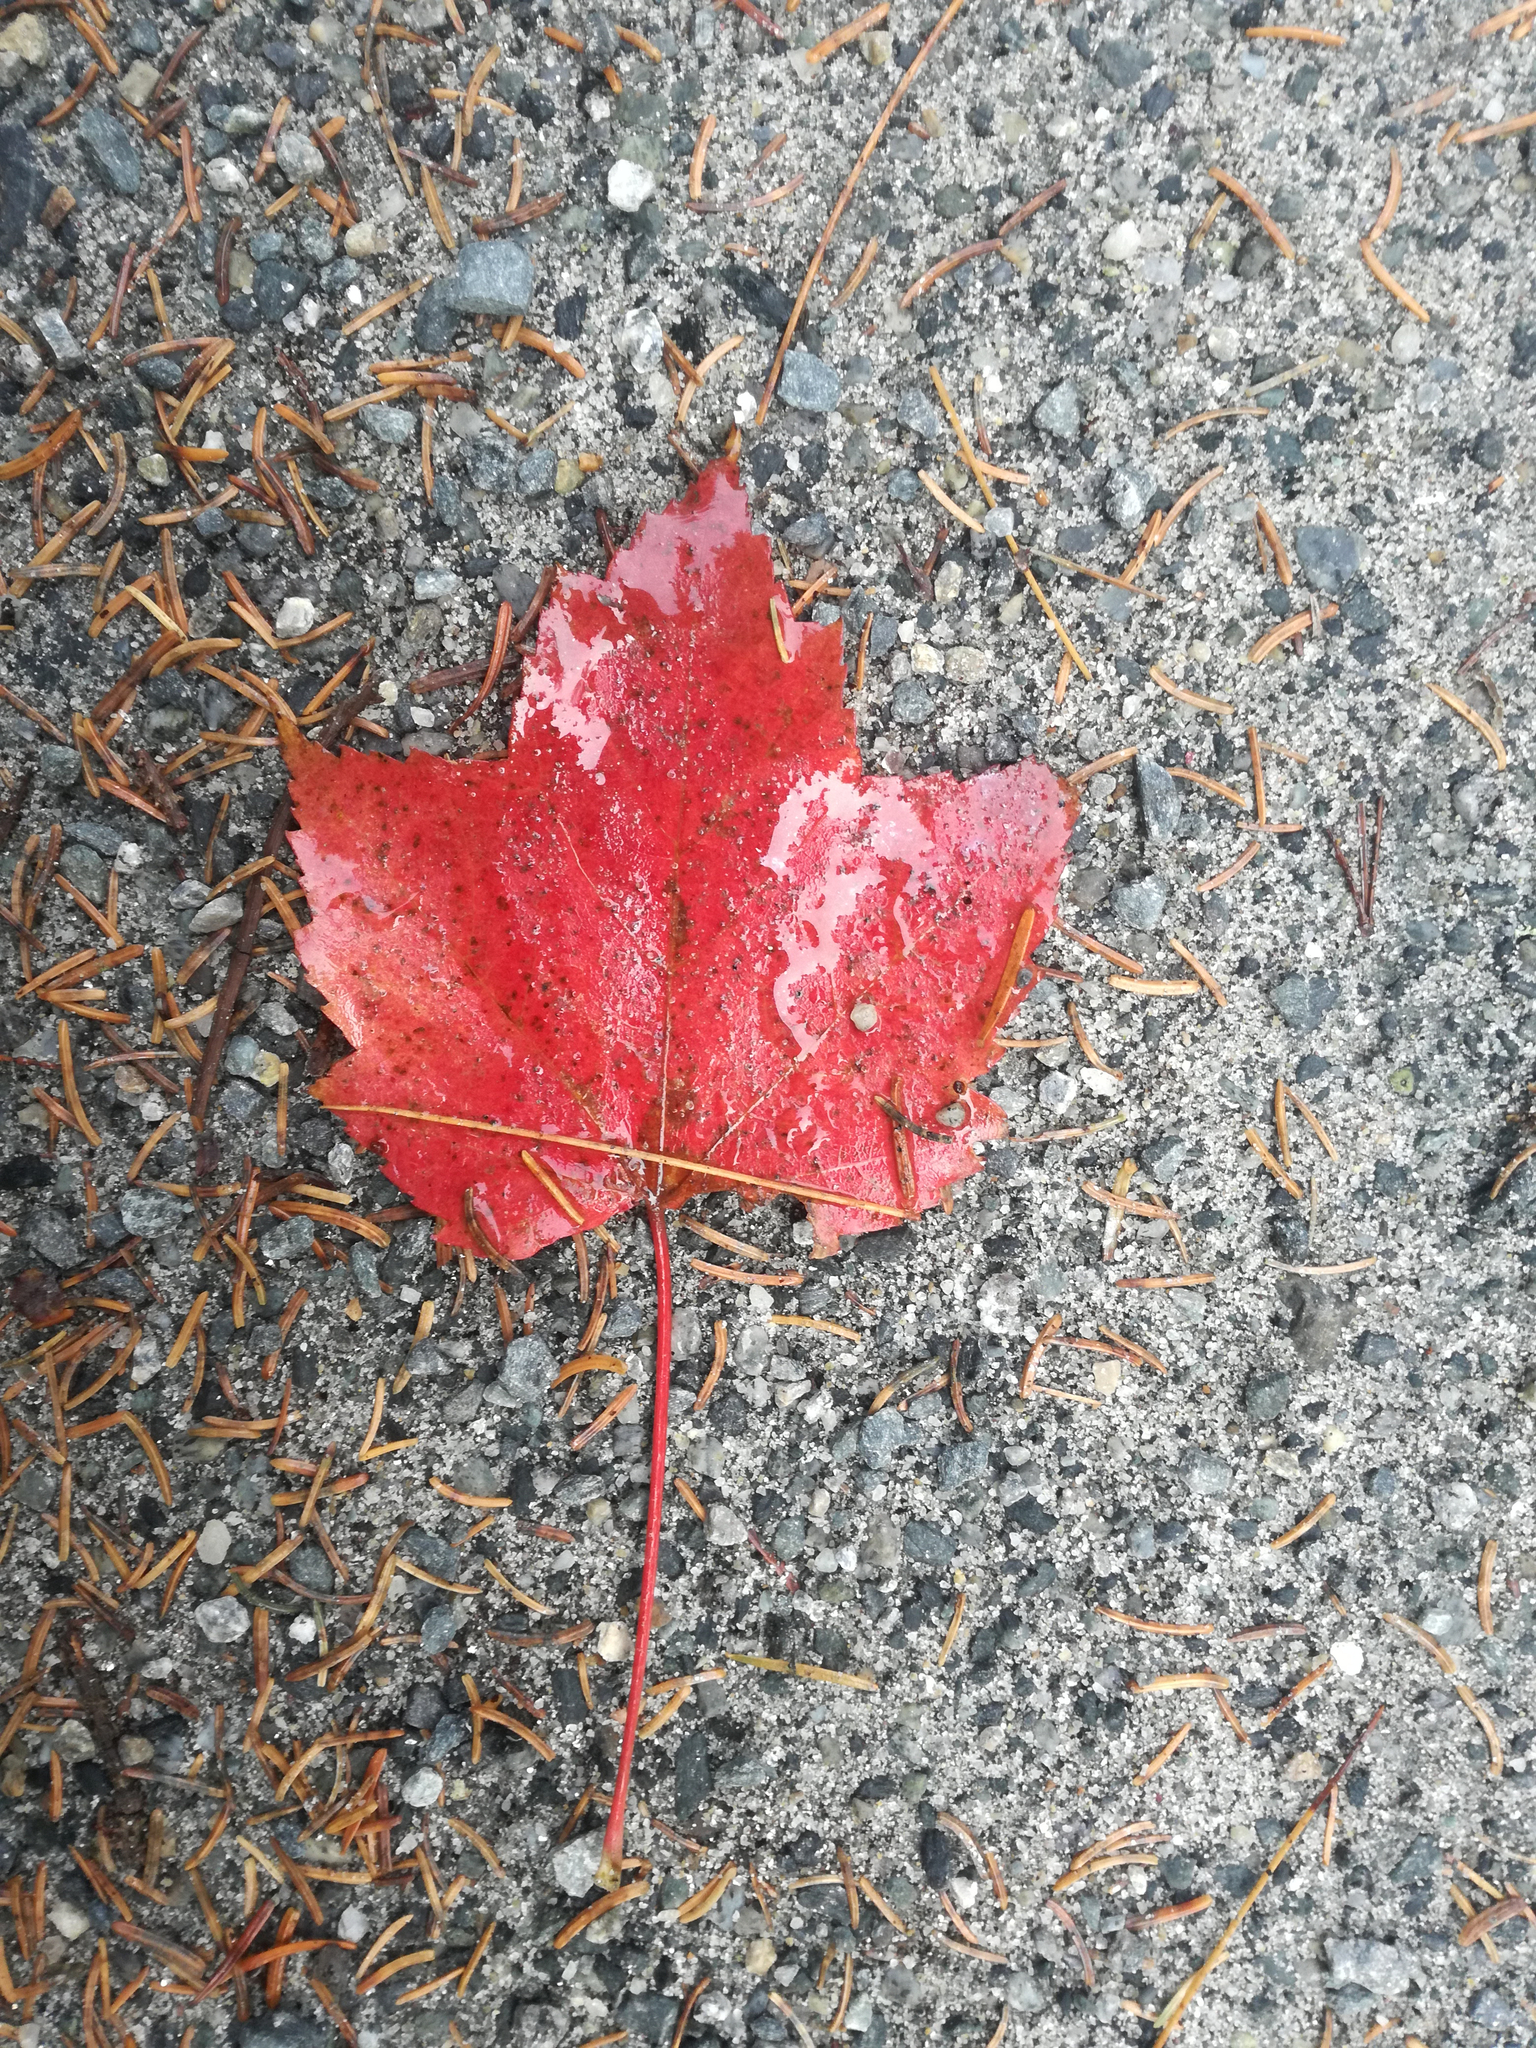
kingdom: Plantae
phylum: Tracheophyta
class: Magnoliopsida
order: Sapindales
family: Sapindaceae
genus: Acer
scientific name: Acer rubrum
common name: Red maple
